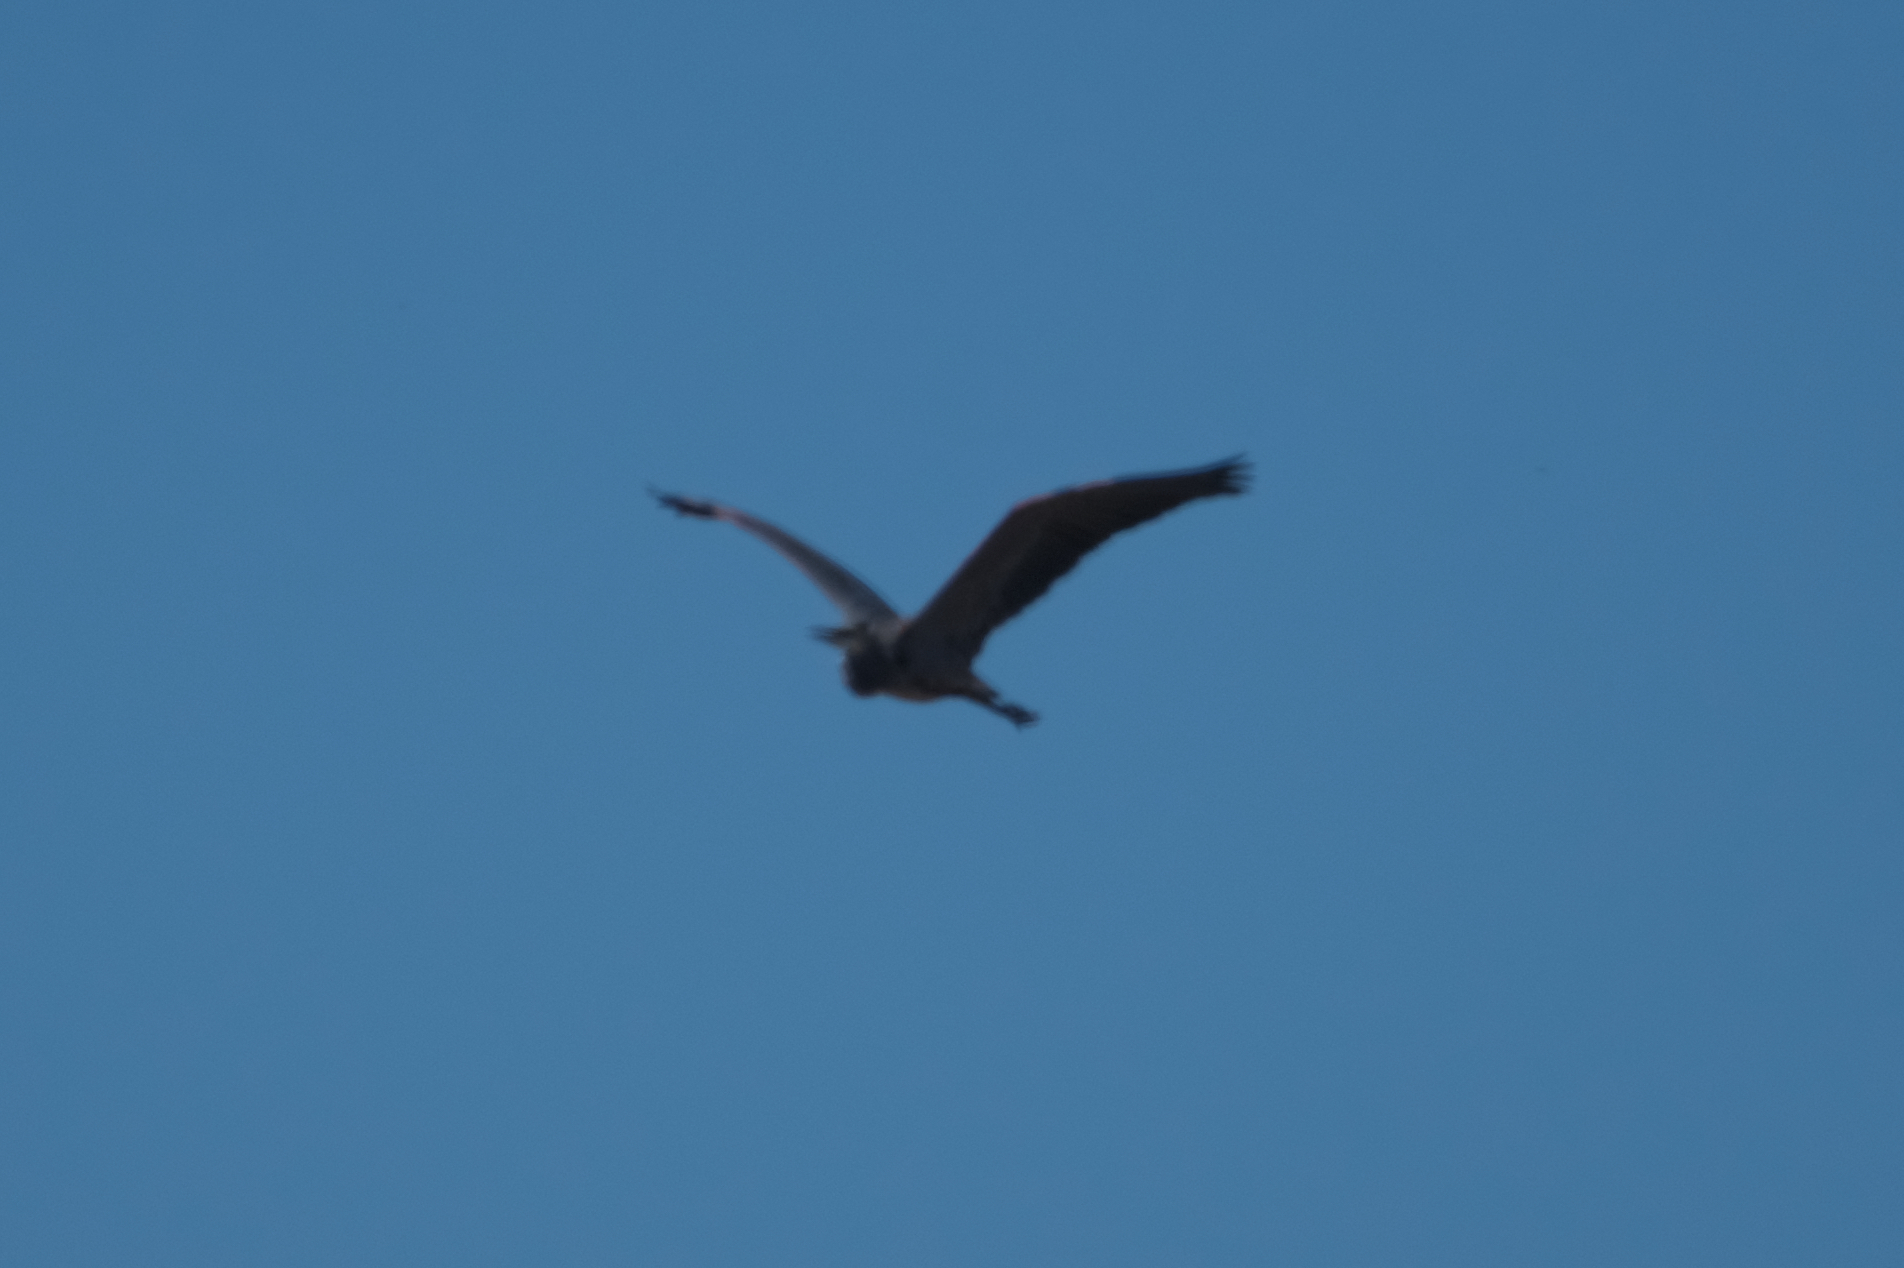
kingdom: Animalia
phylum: Chordata
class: Aves
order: Pelecaniformes
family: Ardeidae
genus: Ardea
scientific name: Ardea herodias
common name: Great blue heron
